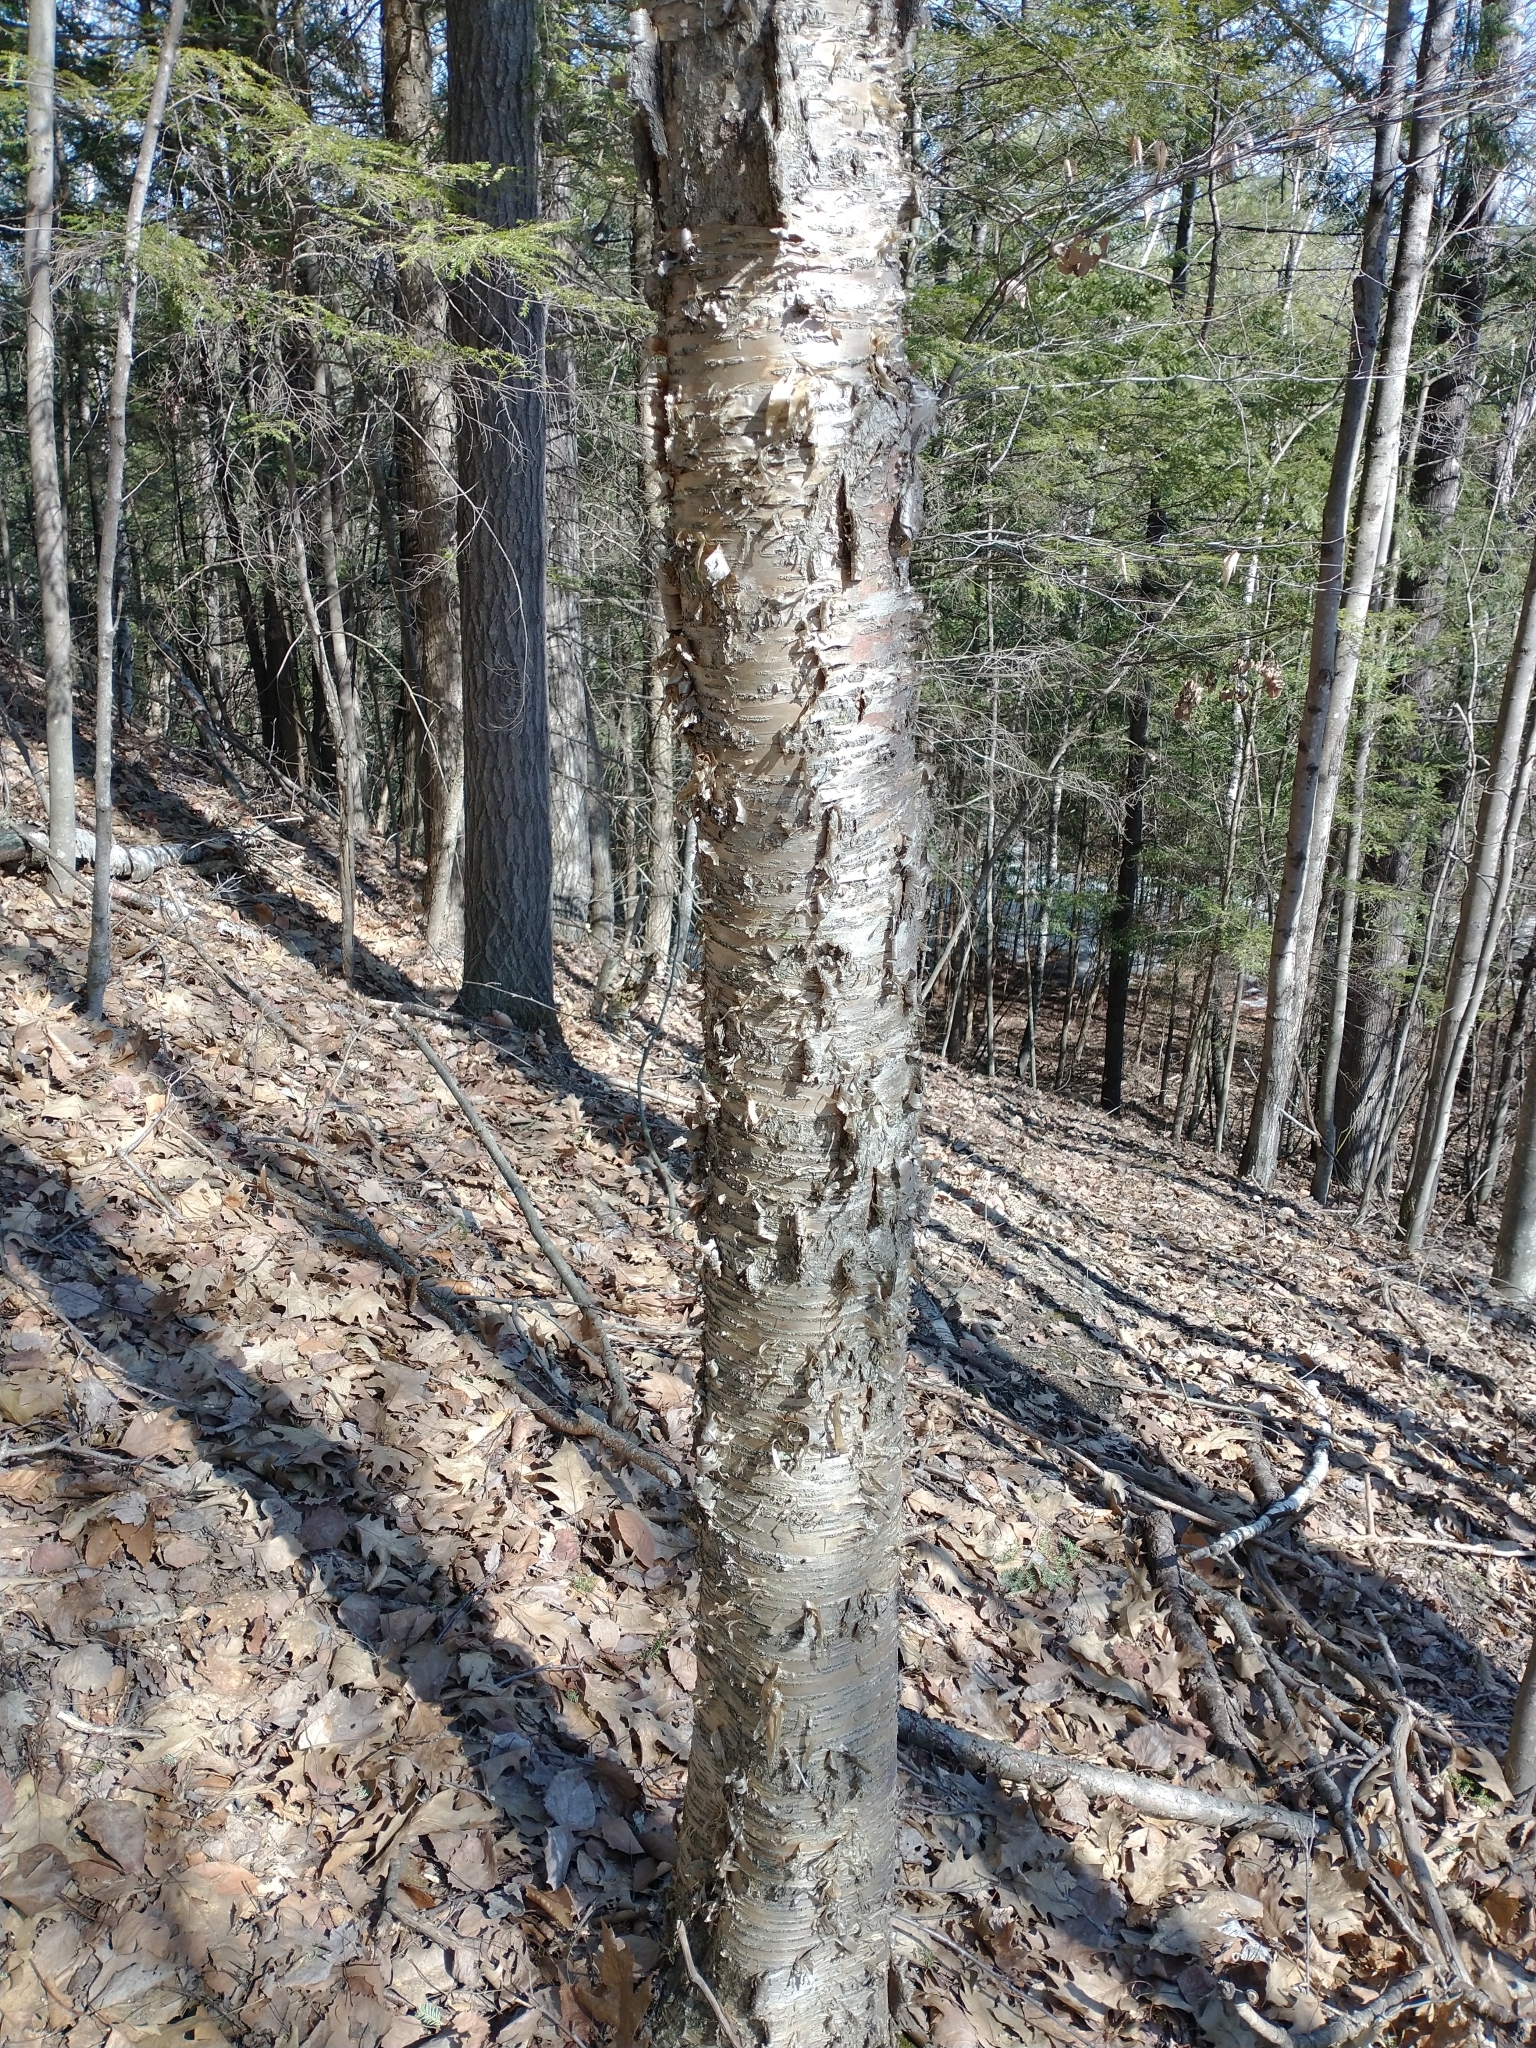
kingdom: Plantae
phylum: Tracheophyta
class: Magnoliopsida
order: Fagales
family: Betulaceae
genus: Betula
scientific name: Betula alleghaniensis
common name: Yellow birch
